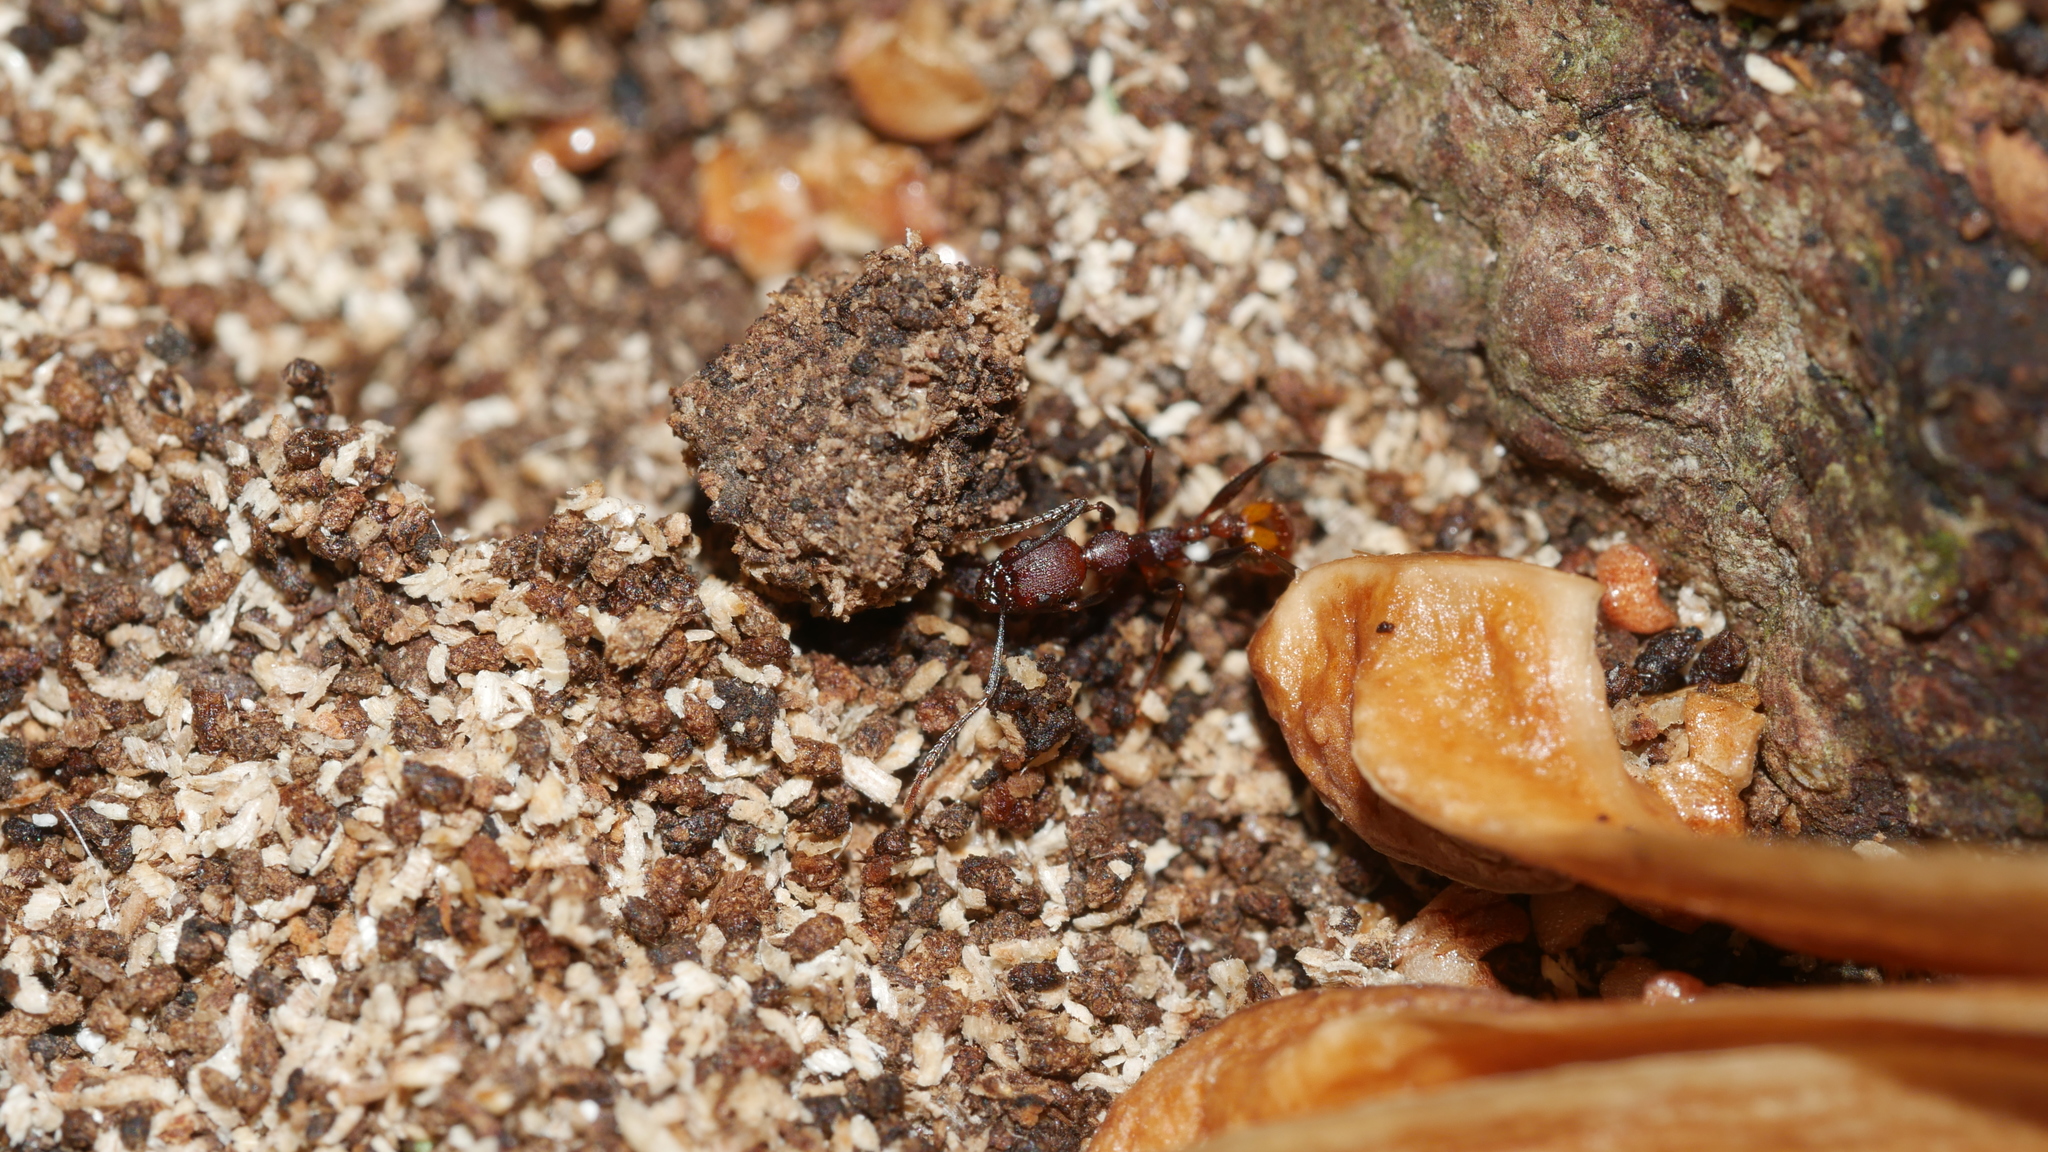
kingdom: Animalia
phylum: Arthropoda
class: Insecta
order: Hymenoptera
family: Formicidae
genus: Aphaenogaster
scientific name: Aphaenogaster lamellidens
